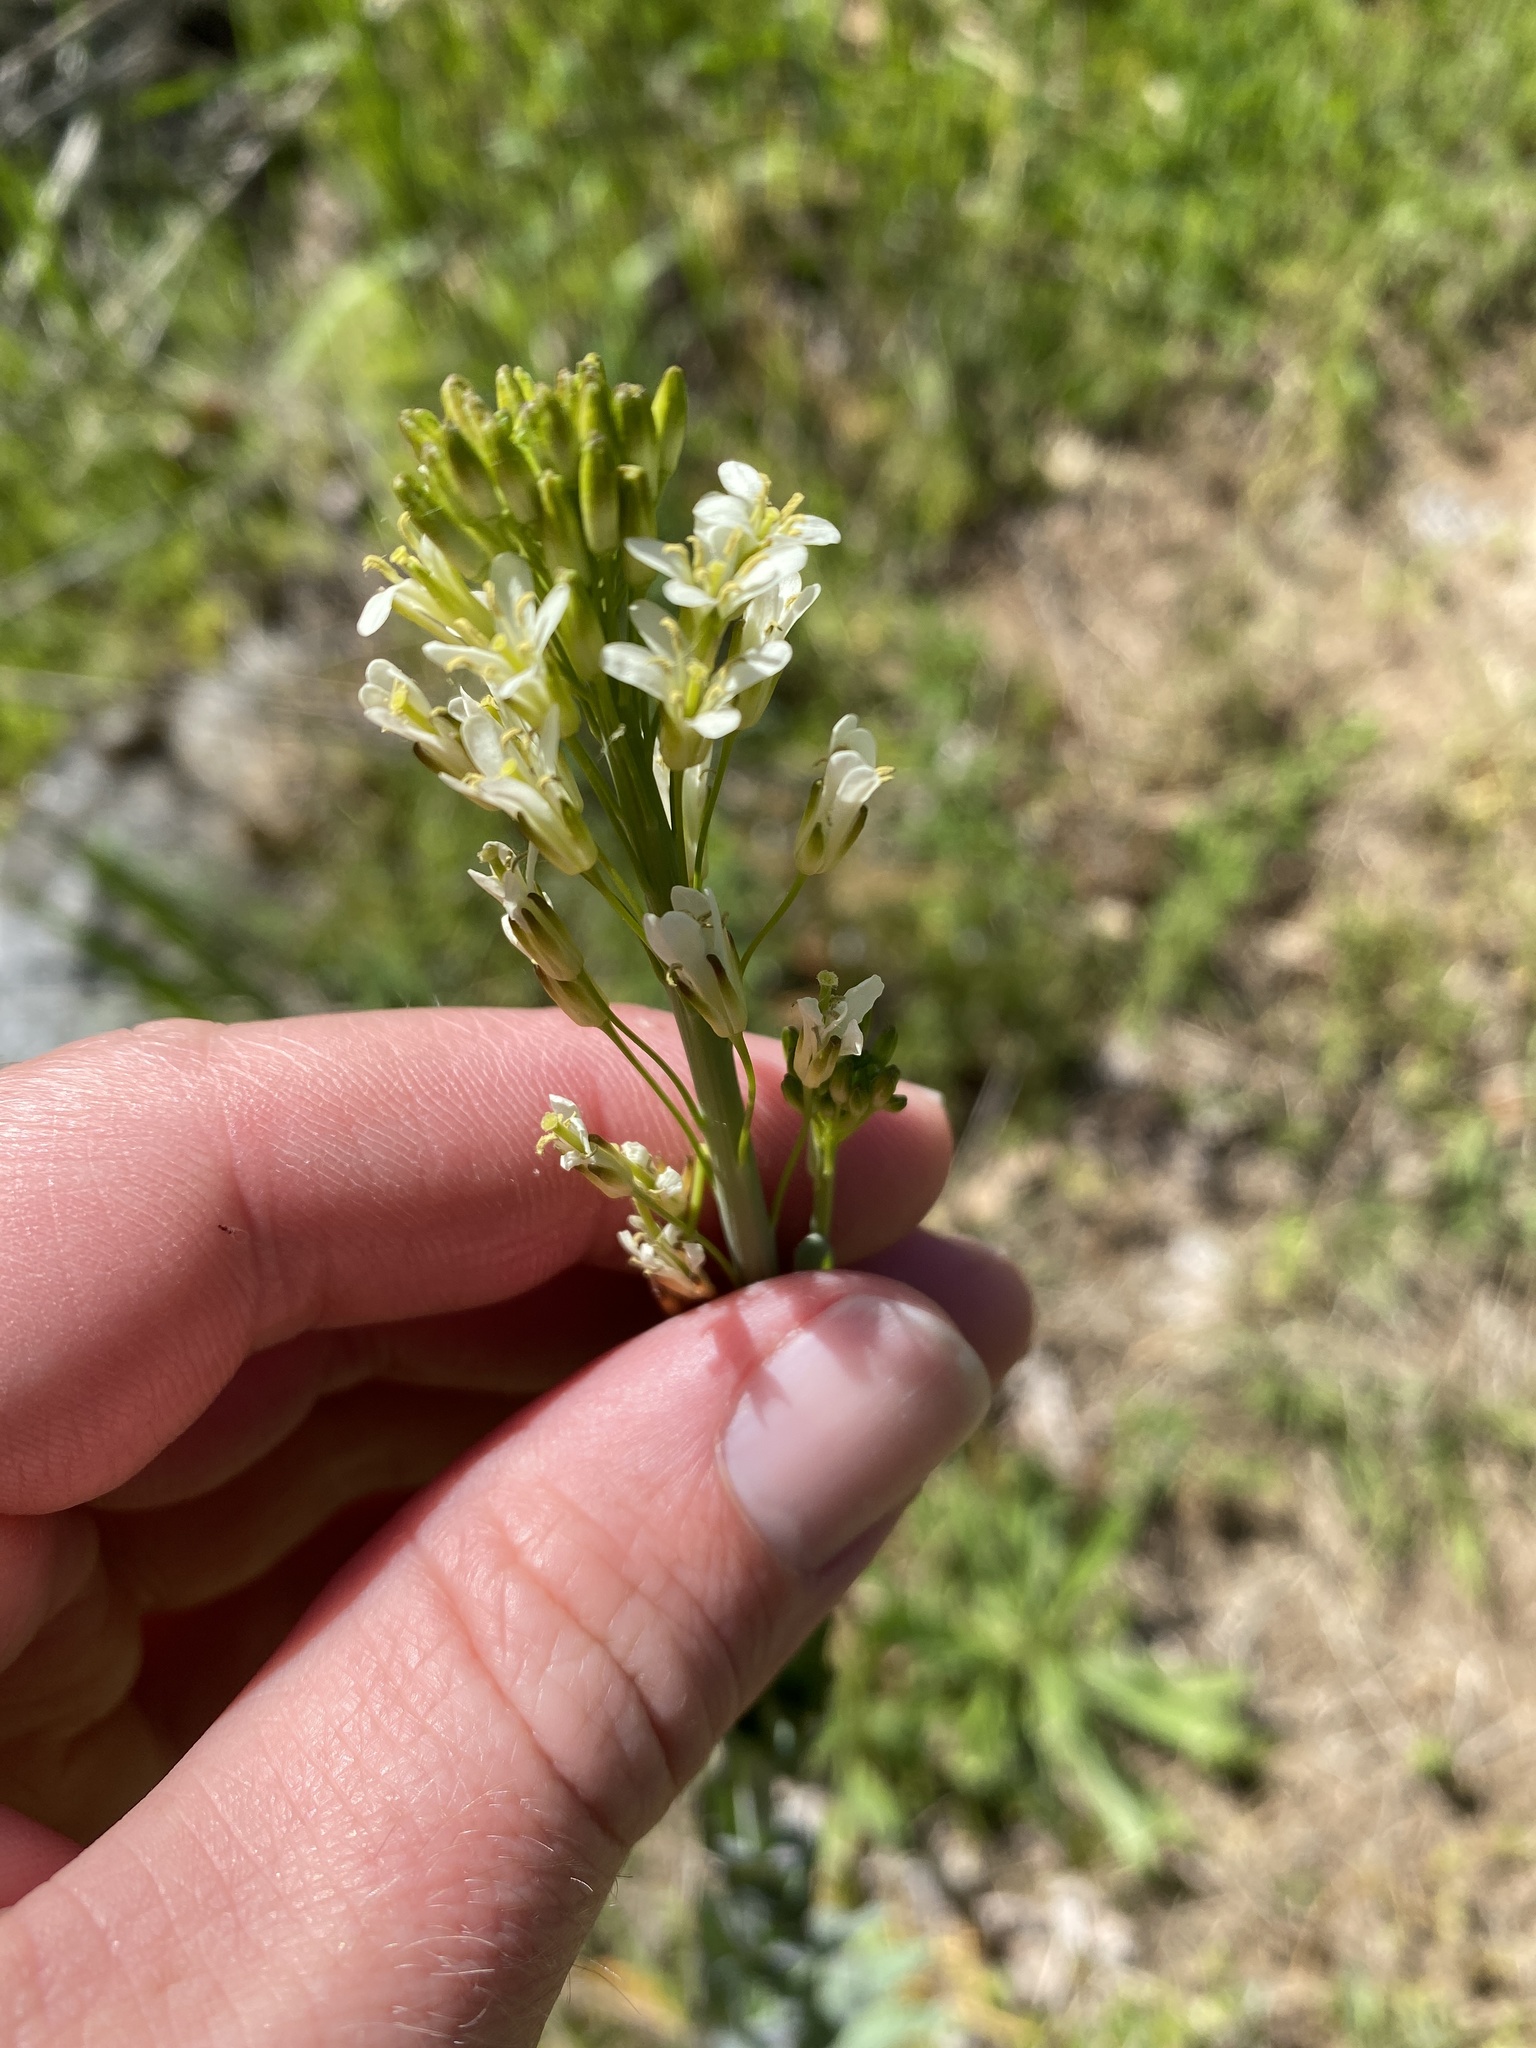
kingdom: Plantae
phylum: Tracheophyta
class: Magnoliopsida
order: Brassicales
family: Brassicaceae
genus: Turritis
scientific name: Turritis glabra
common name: Tower rockcress
